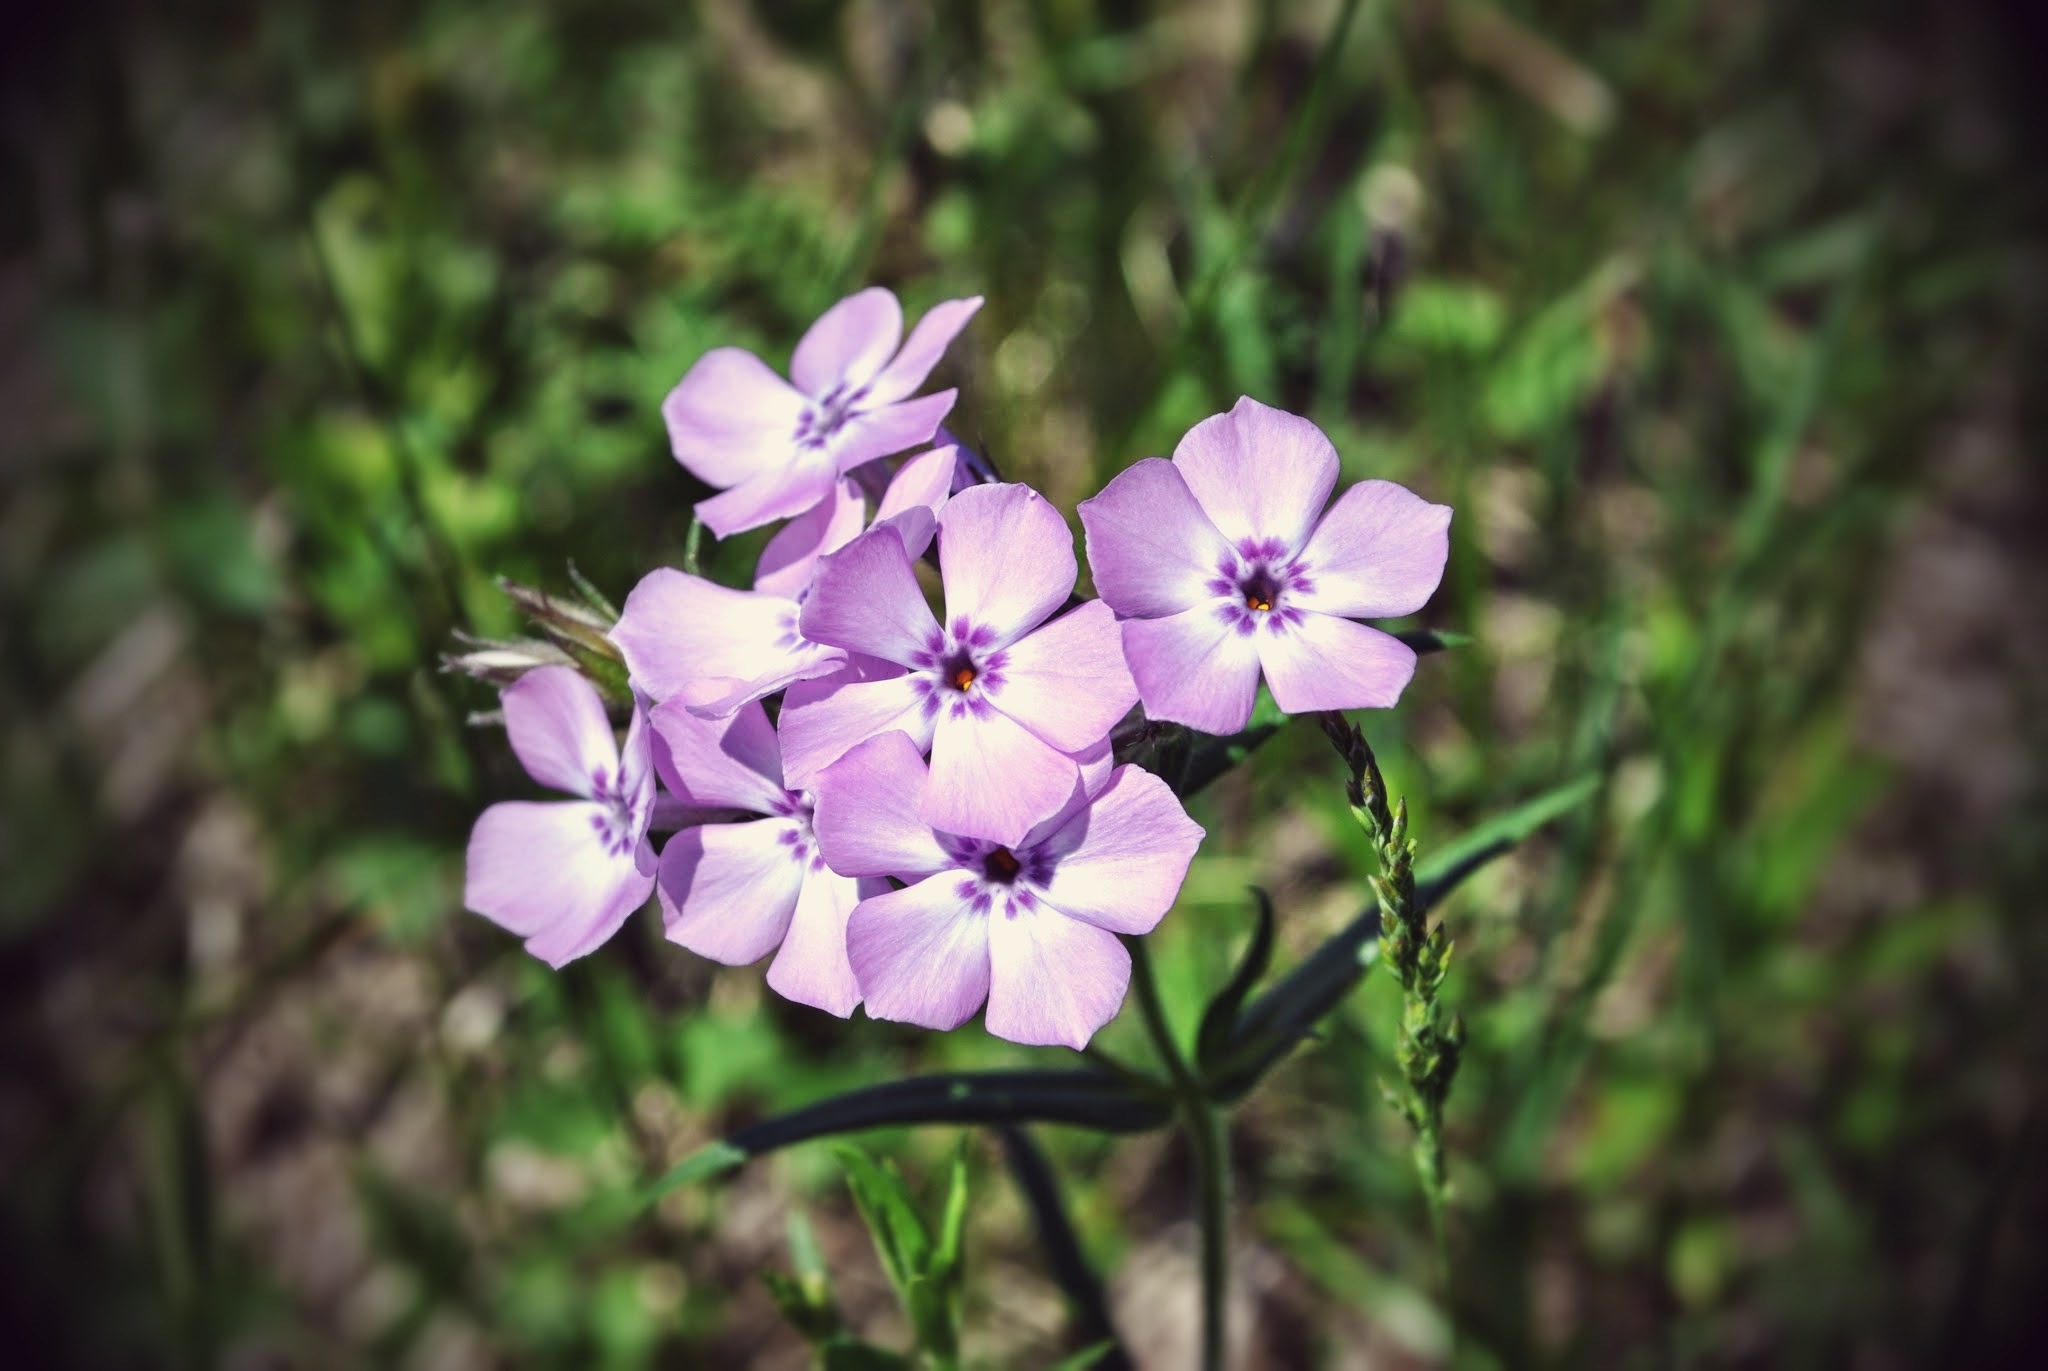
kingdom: Plantae
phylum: Tracheophyta
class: Magnoliopsida
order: Ericales
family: Polemoniaceae
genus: Phlox
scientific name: Phlox pilosa
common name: Prairie phlox
